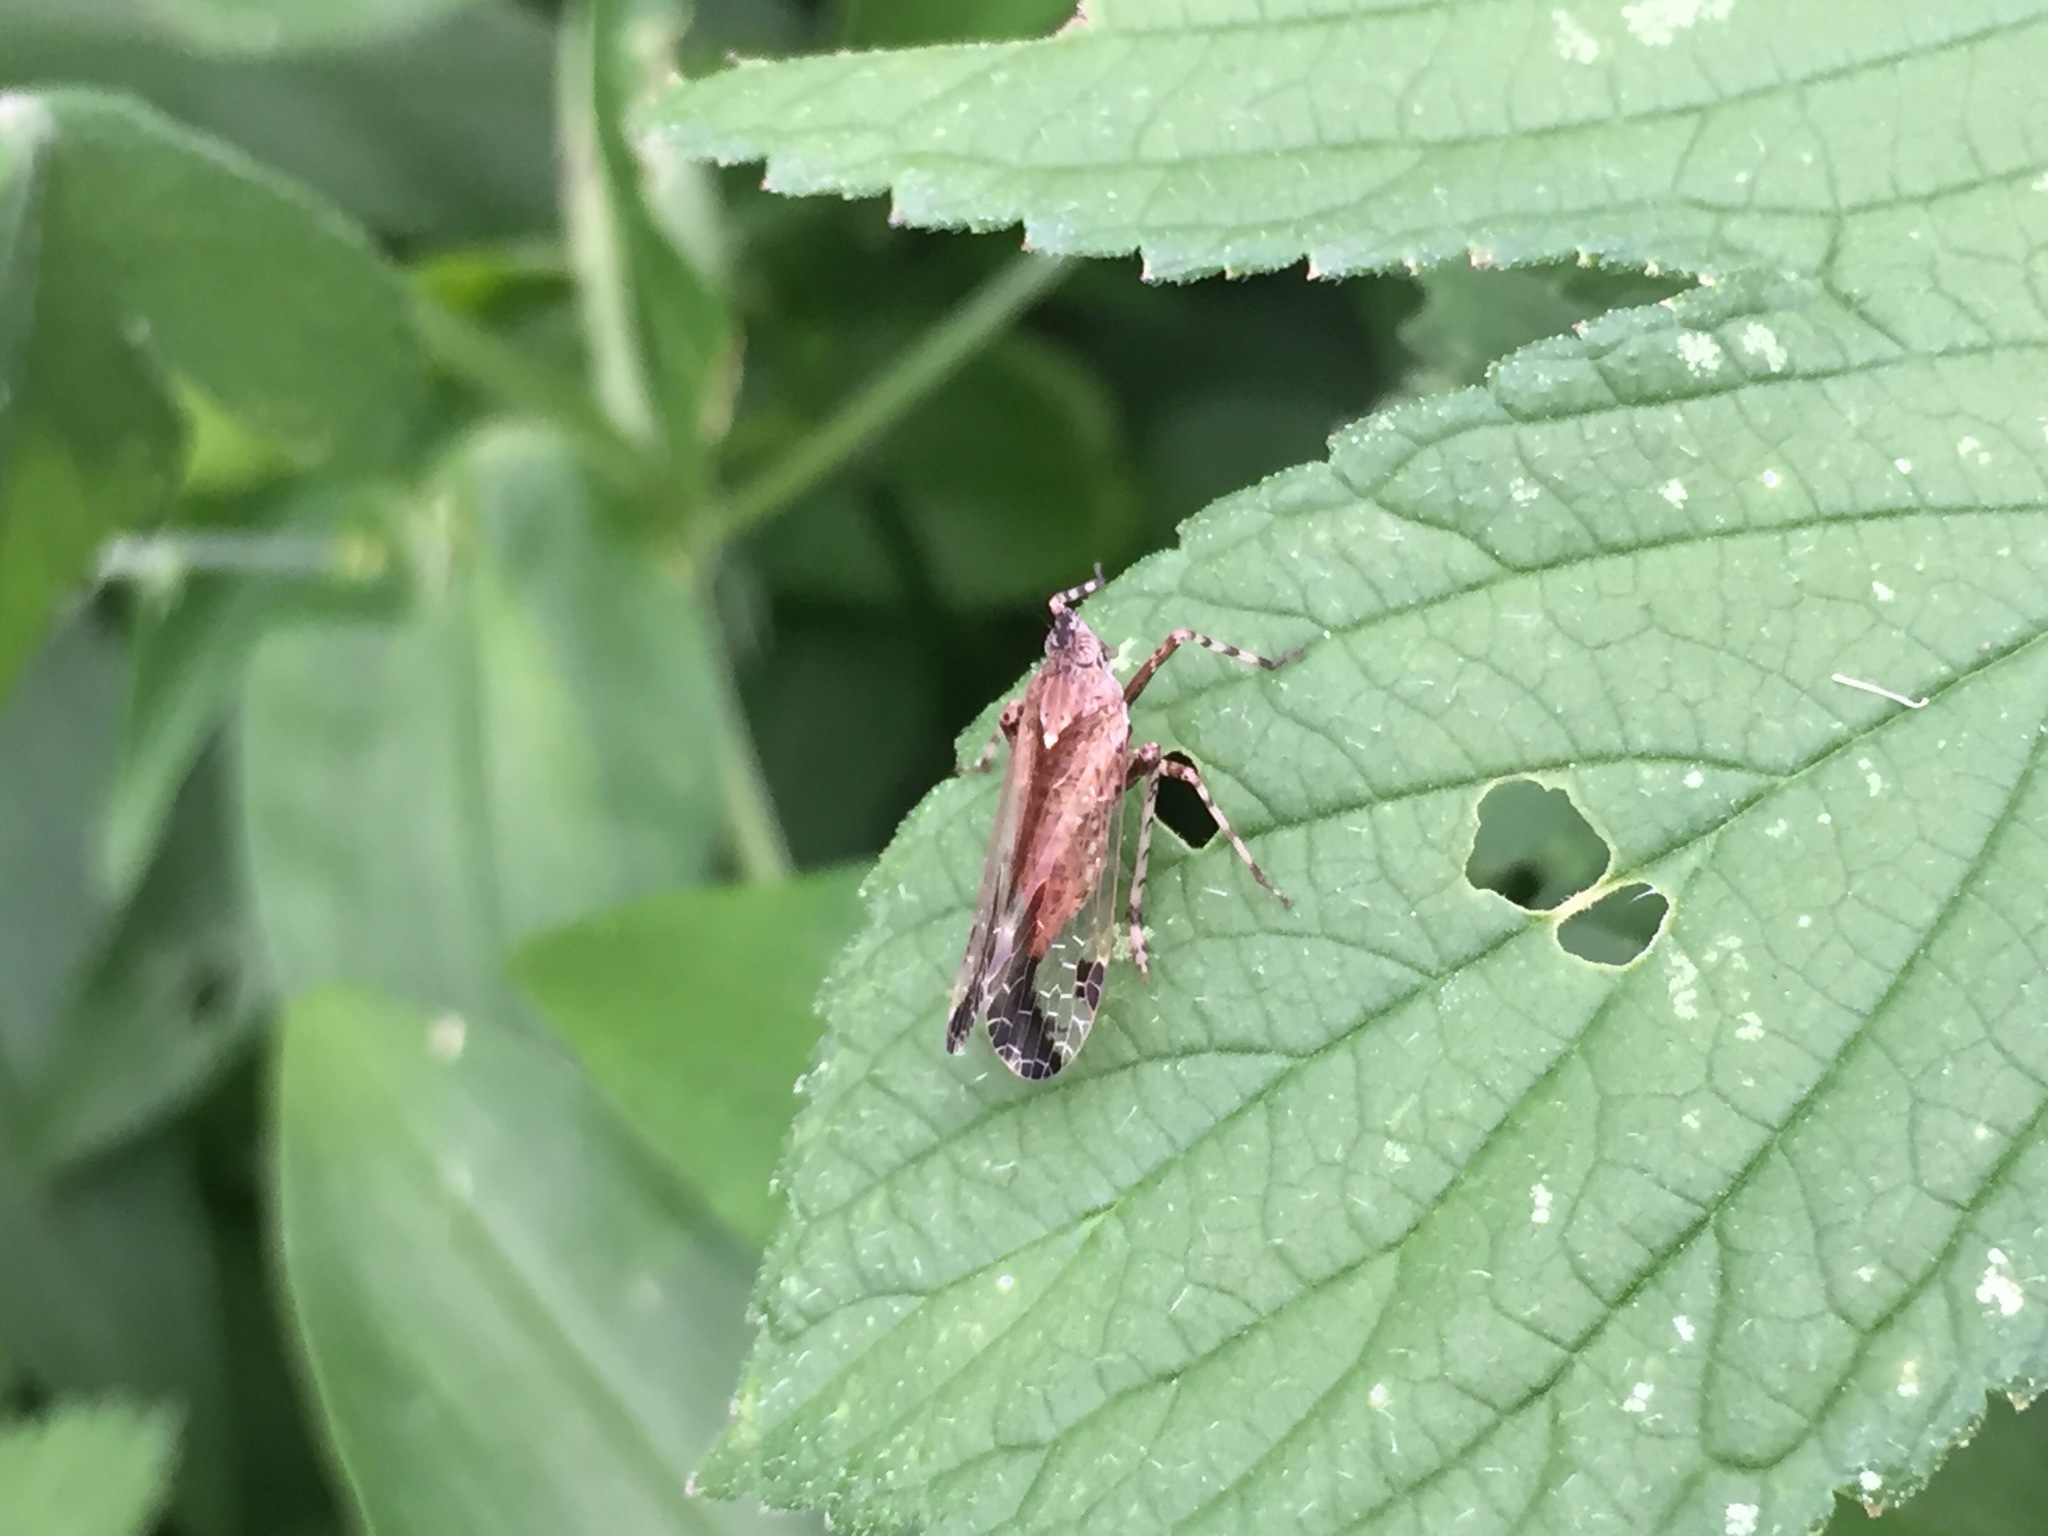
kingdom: Animalia
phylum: Arthropoda
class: Insecta
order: Hemiptera
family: Dictyopharidae
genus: Orthopagus
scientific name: Orthopagus lunulifer
